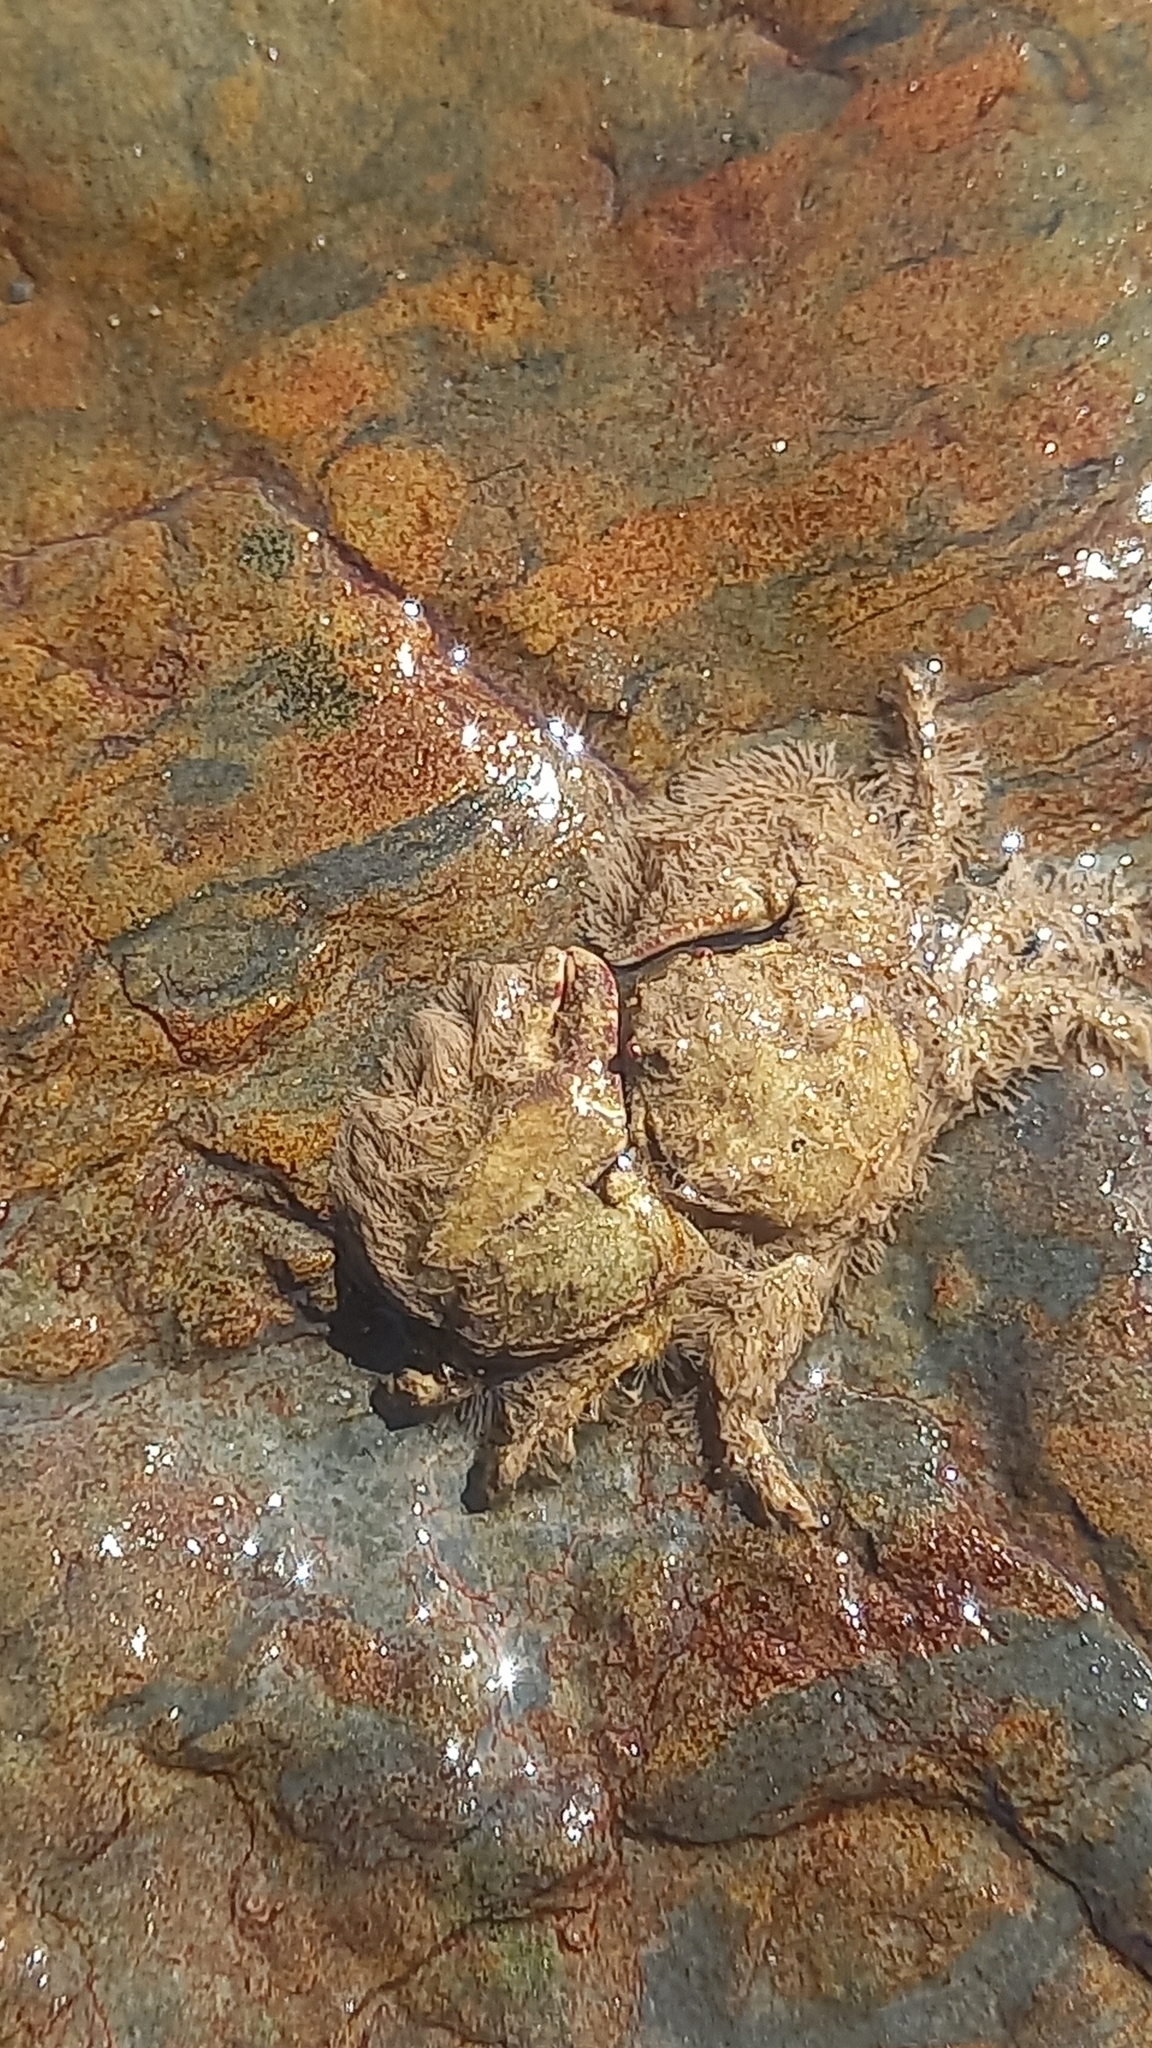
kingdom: Animalia
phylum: Arthropoda
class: Malacostraca
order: Decapoda
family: Porcellanidae
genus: Porcellana
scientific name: Porcellana platycheles
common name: Porcelain crab
